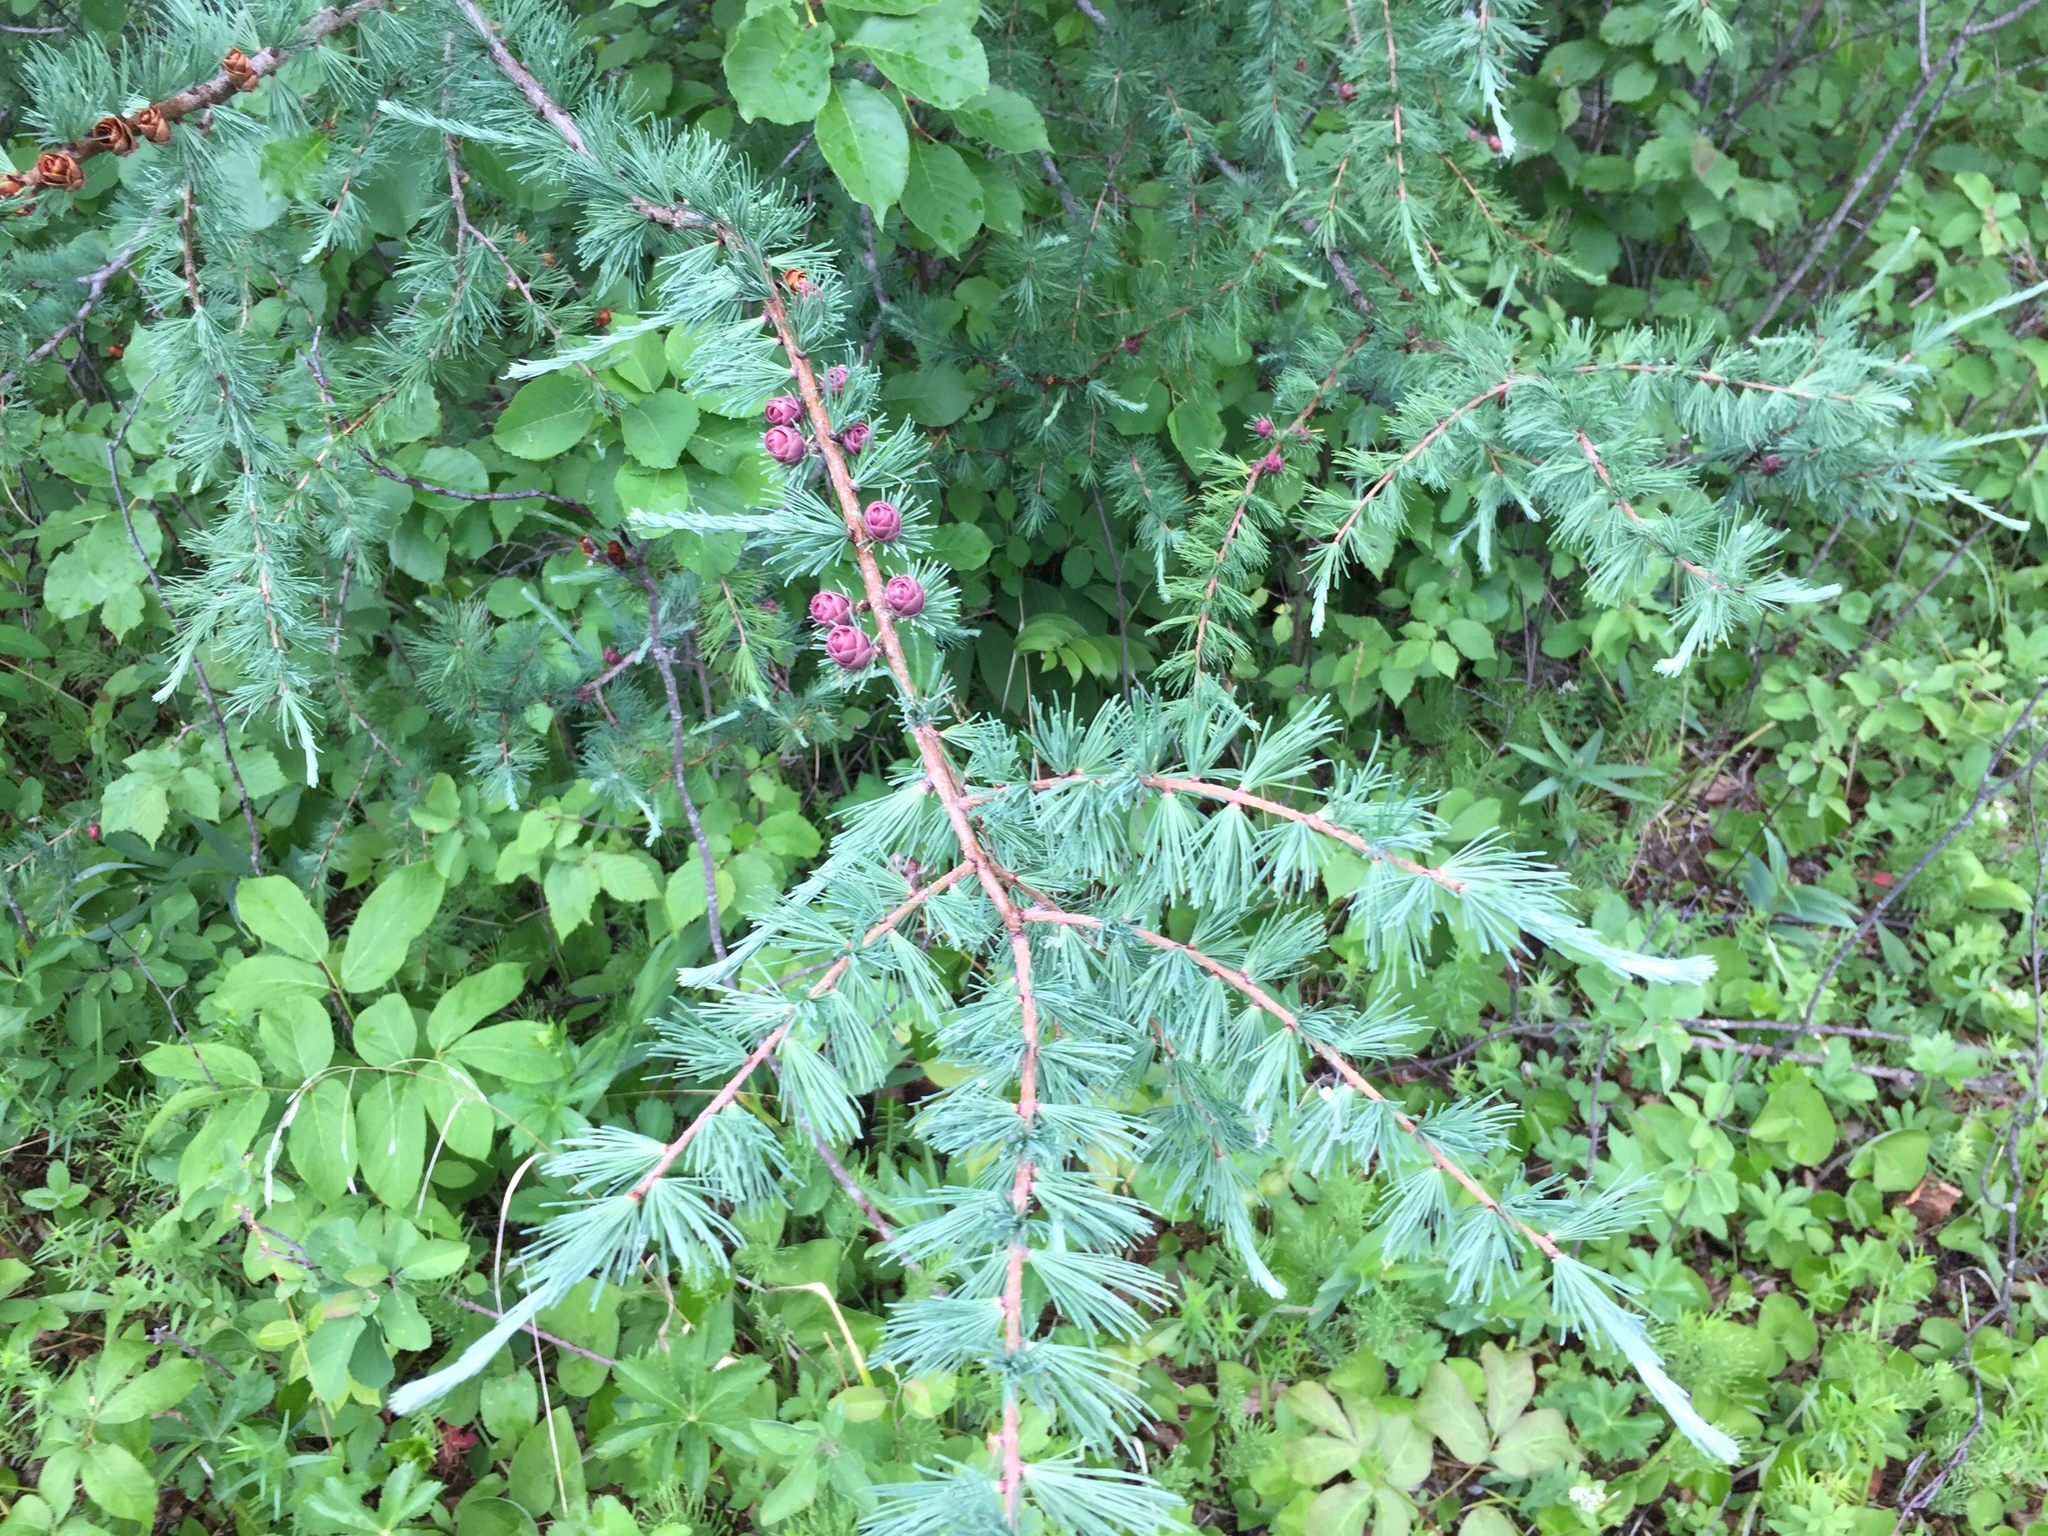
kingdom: Plantae
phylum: Tracheophyta
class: Pinopsida
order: Pinales
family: Pinaceae
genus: Larix
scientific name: Larix laricina
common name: American larch
